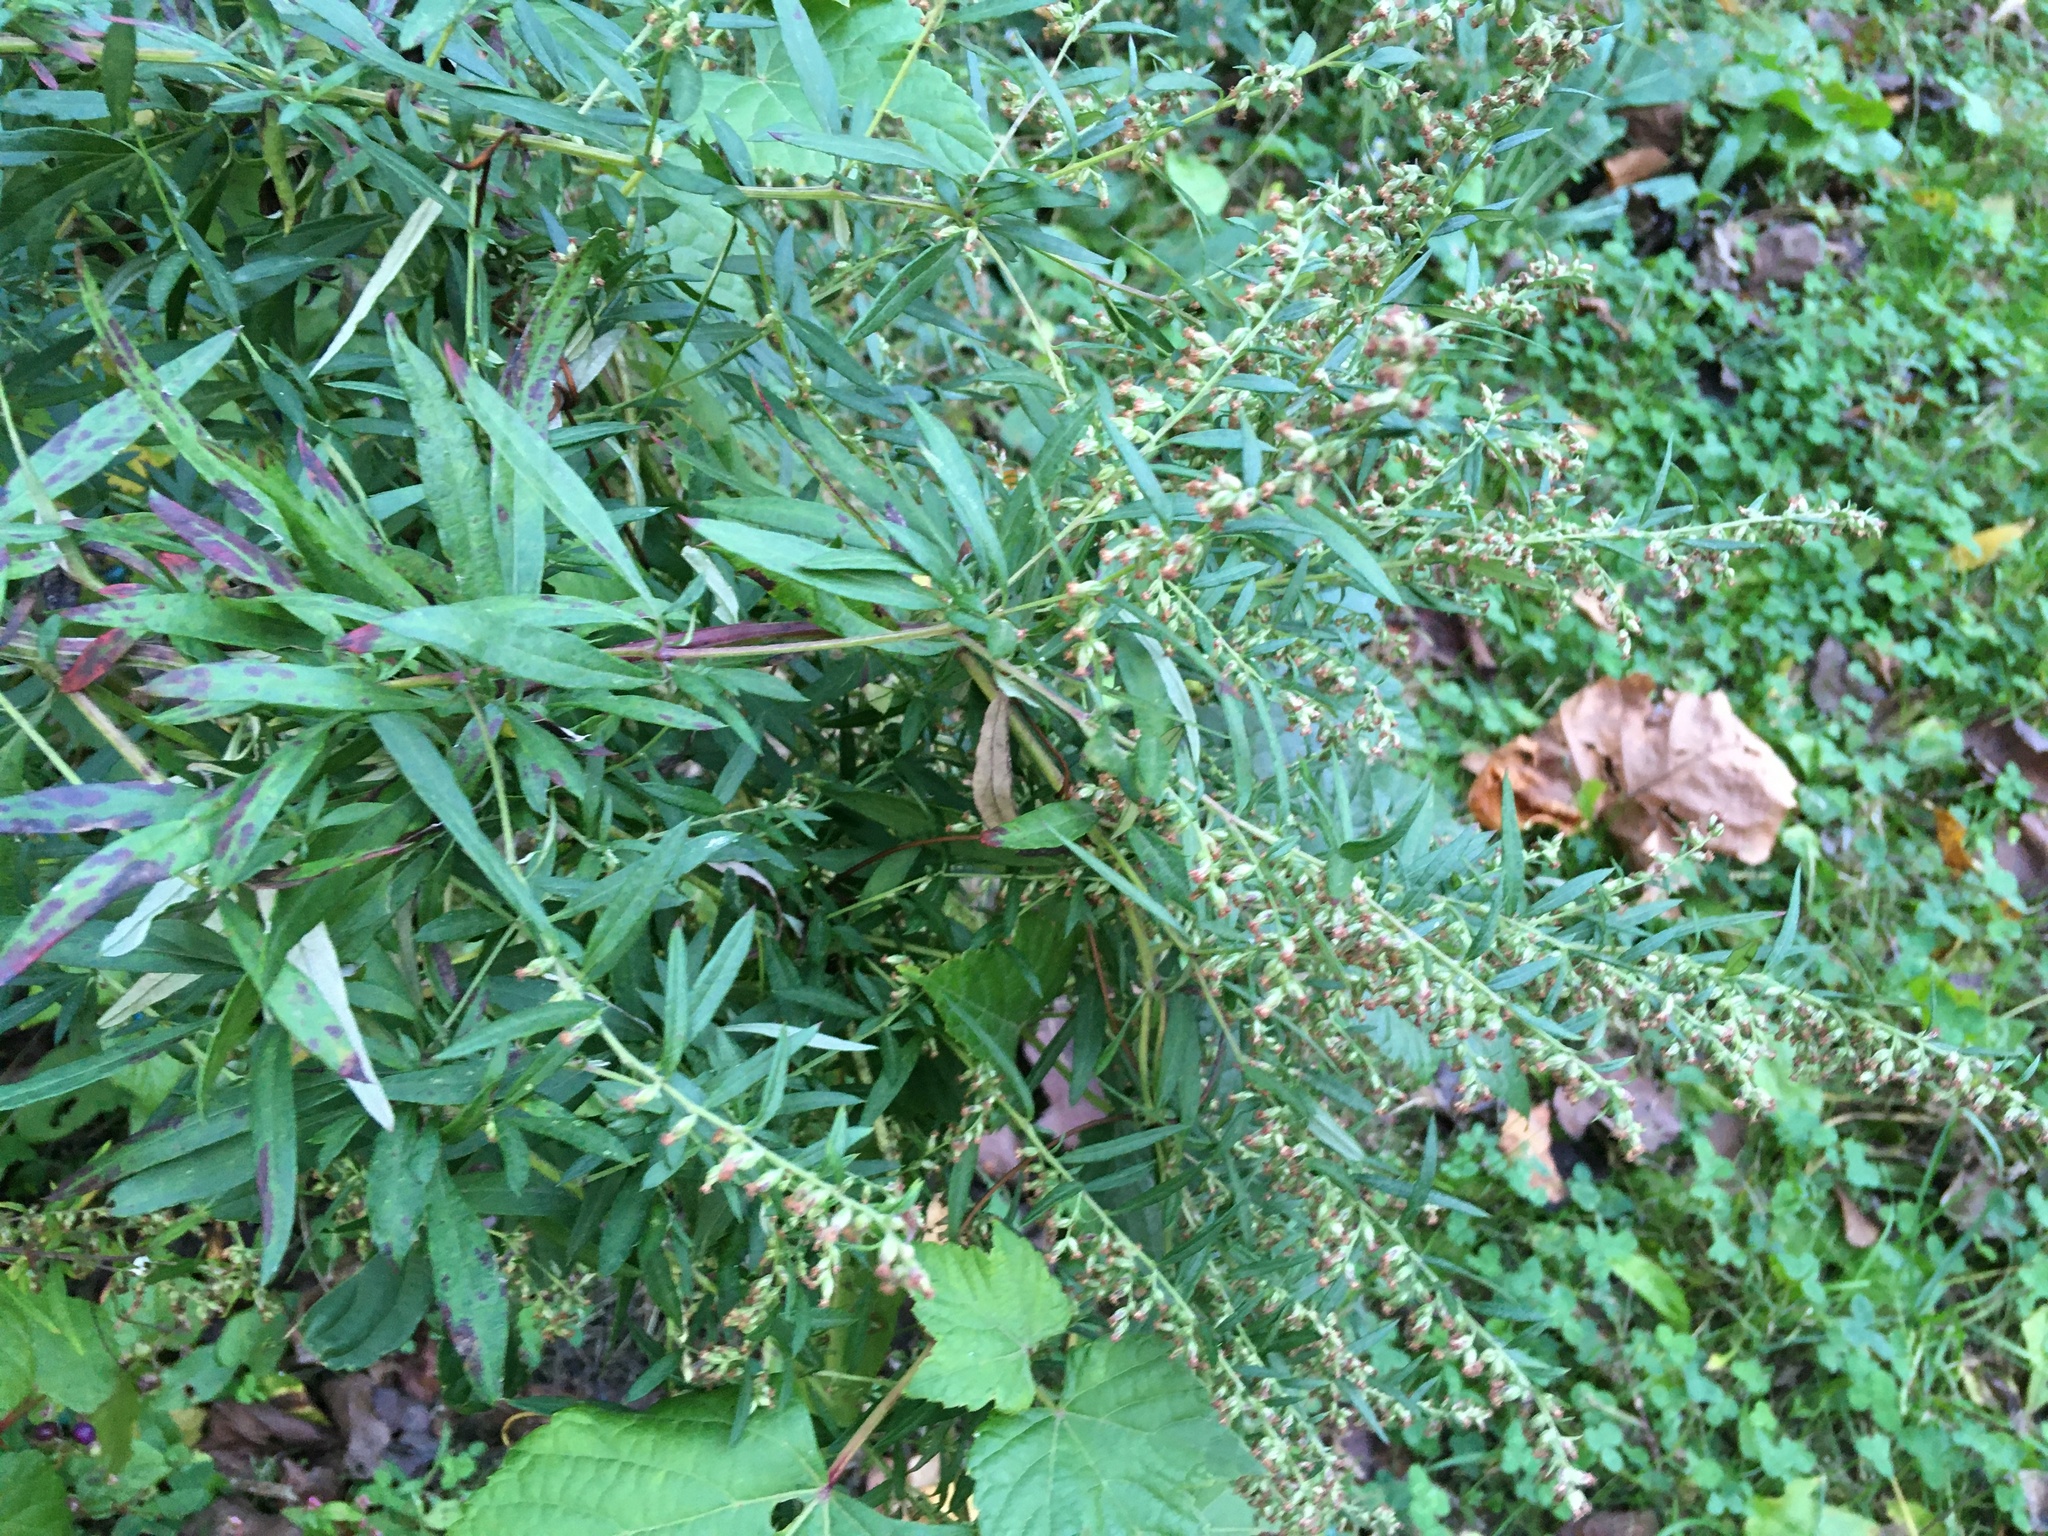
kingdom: Plantae
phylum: Tracheophyta
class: Magnoliopsida
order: Asterales
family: Asteraceae
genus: Artemisia
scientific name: Artemisia vulgaris
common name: Mugwort
